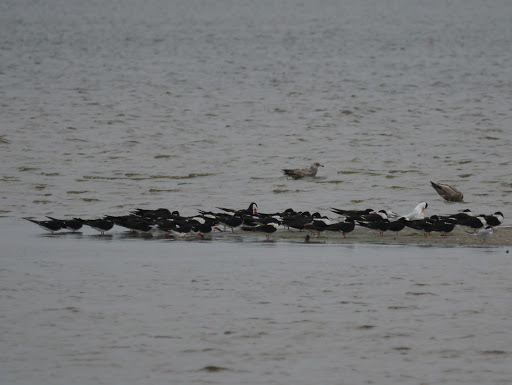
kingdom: Animalia
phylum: Chordata
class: Aves
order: Charadriiformes
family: Laridae
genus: Rynchops
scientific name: Rynchops niger
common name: Black skimmer
